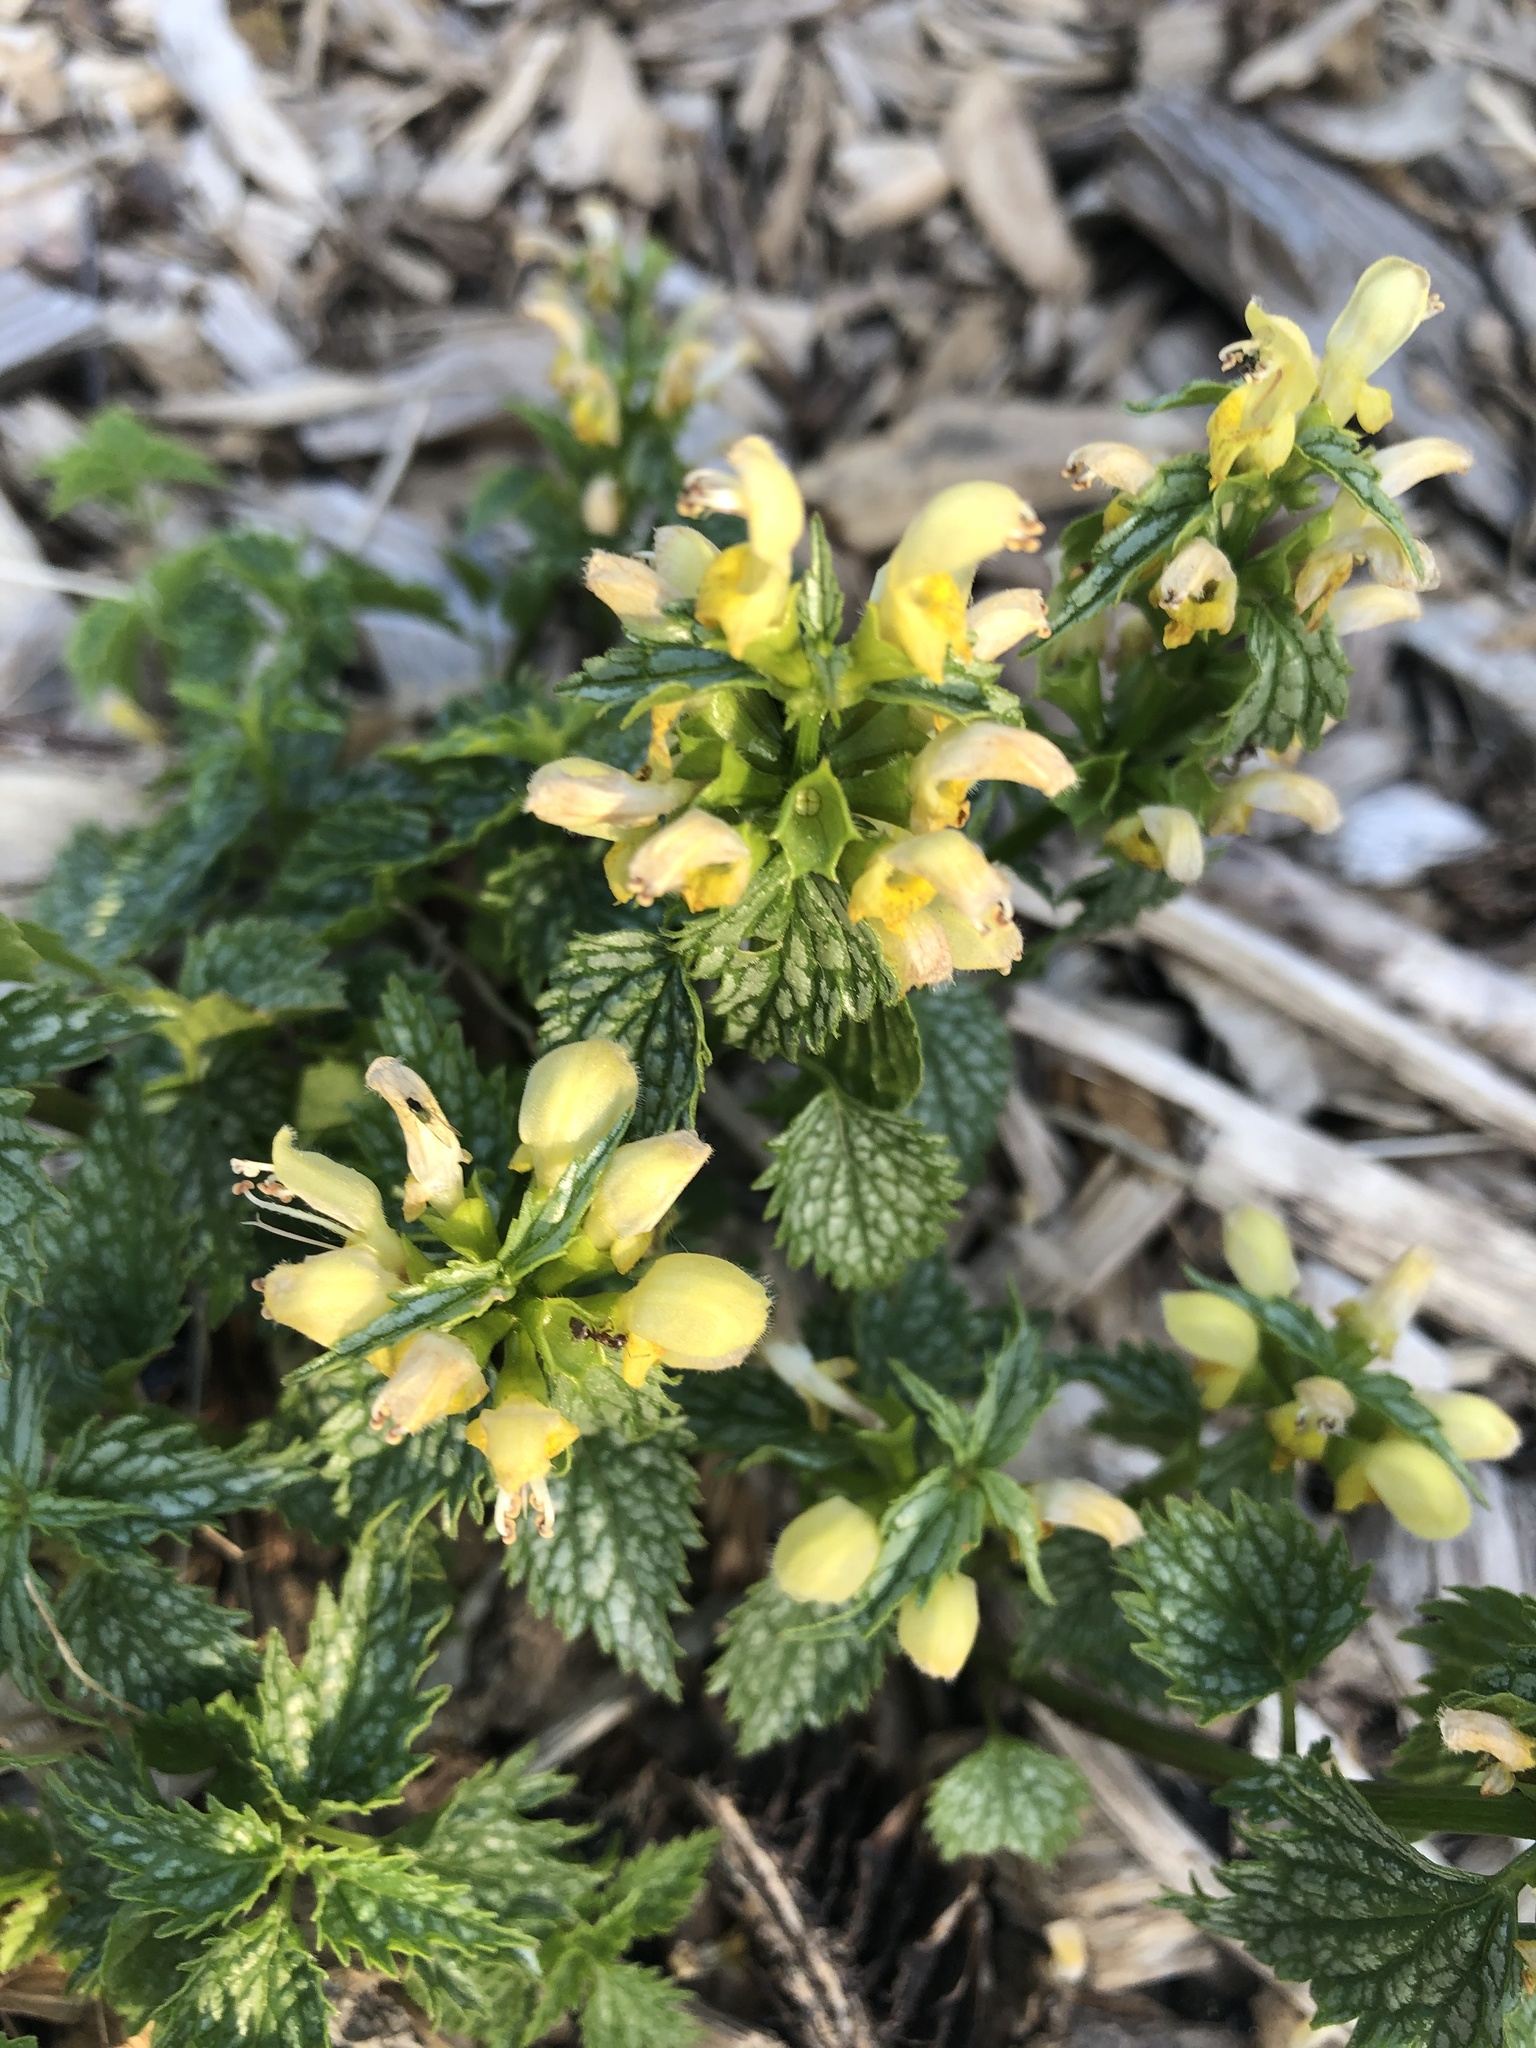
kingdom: Plantae
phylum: Tracheophyta
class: Magnoliopsida
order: Lamiales
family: Lamiaceae
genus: Lamium
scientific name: Lamium galeobdolon
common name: Yellow archangel
